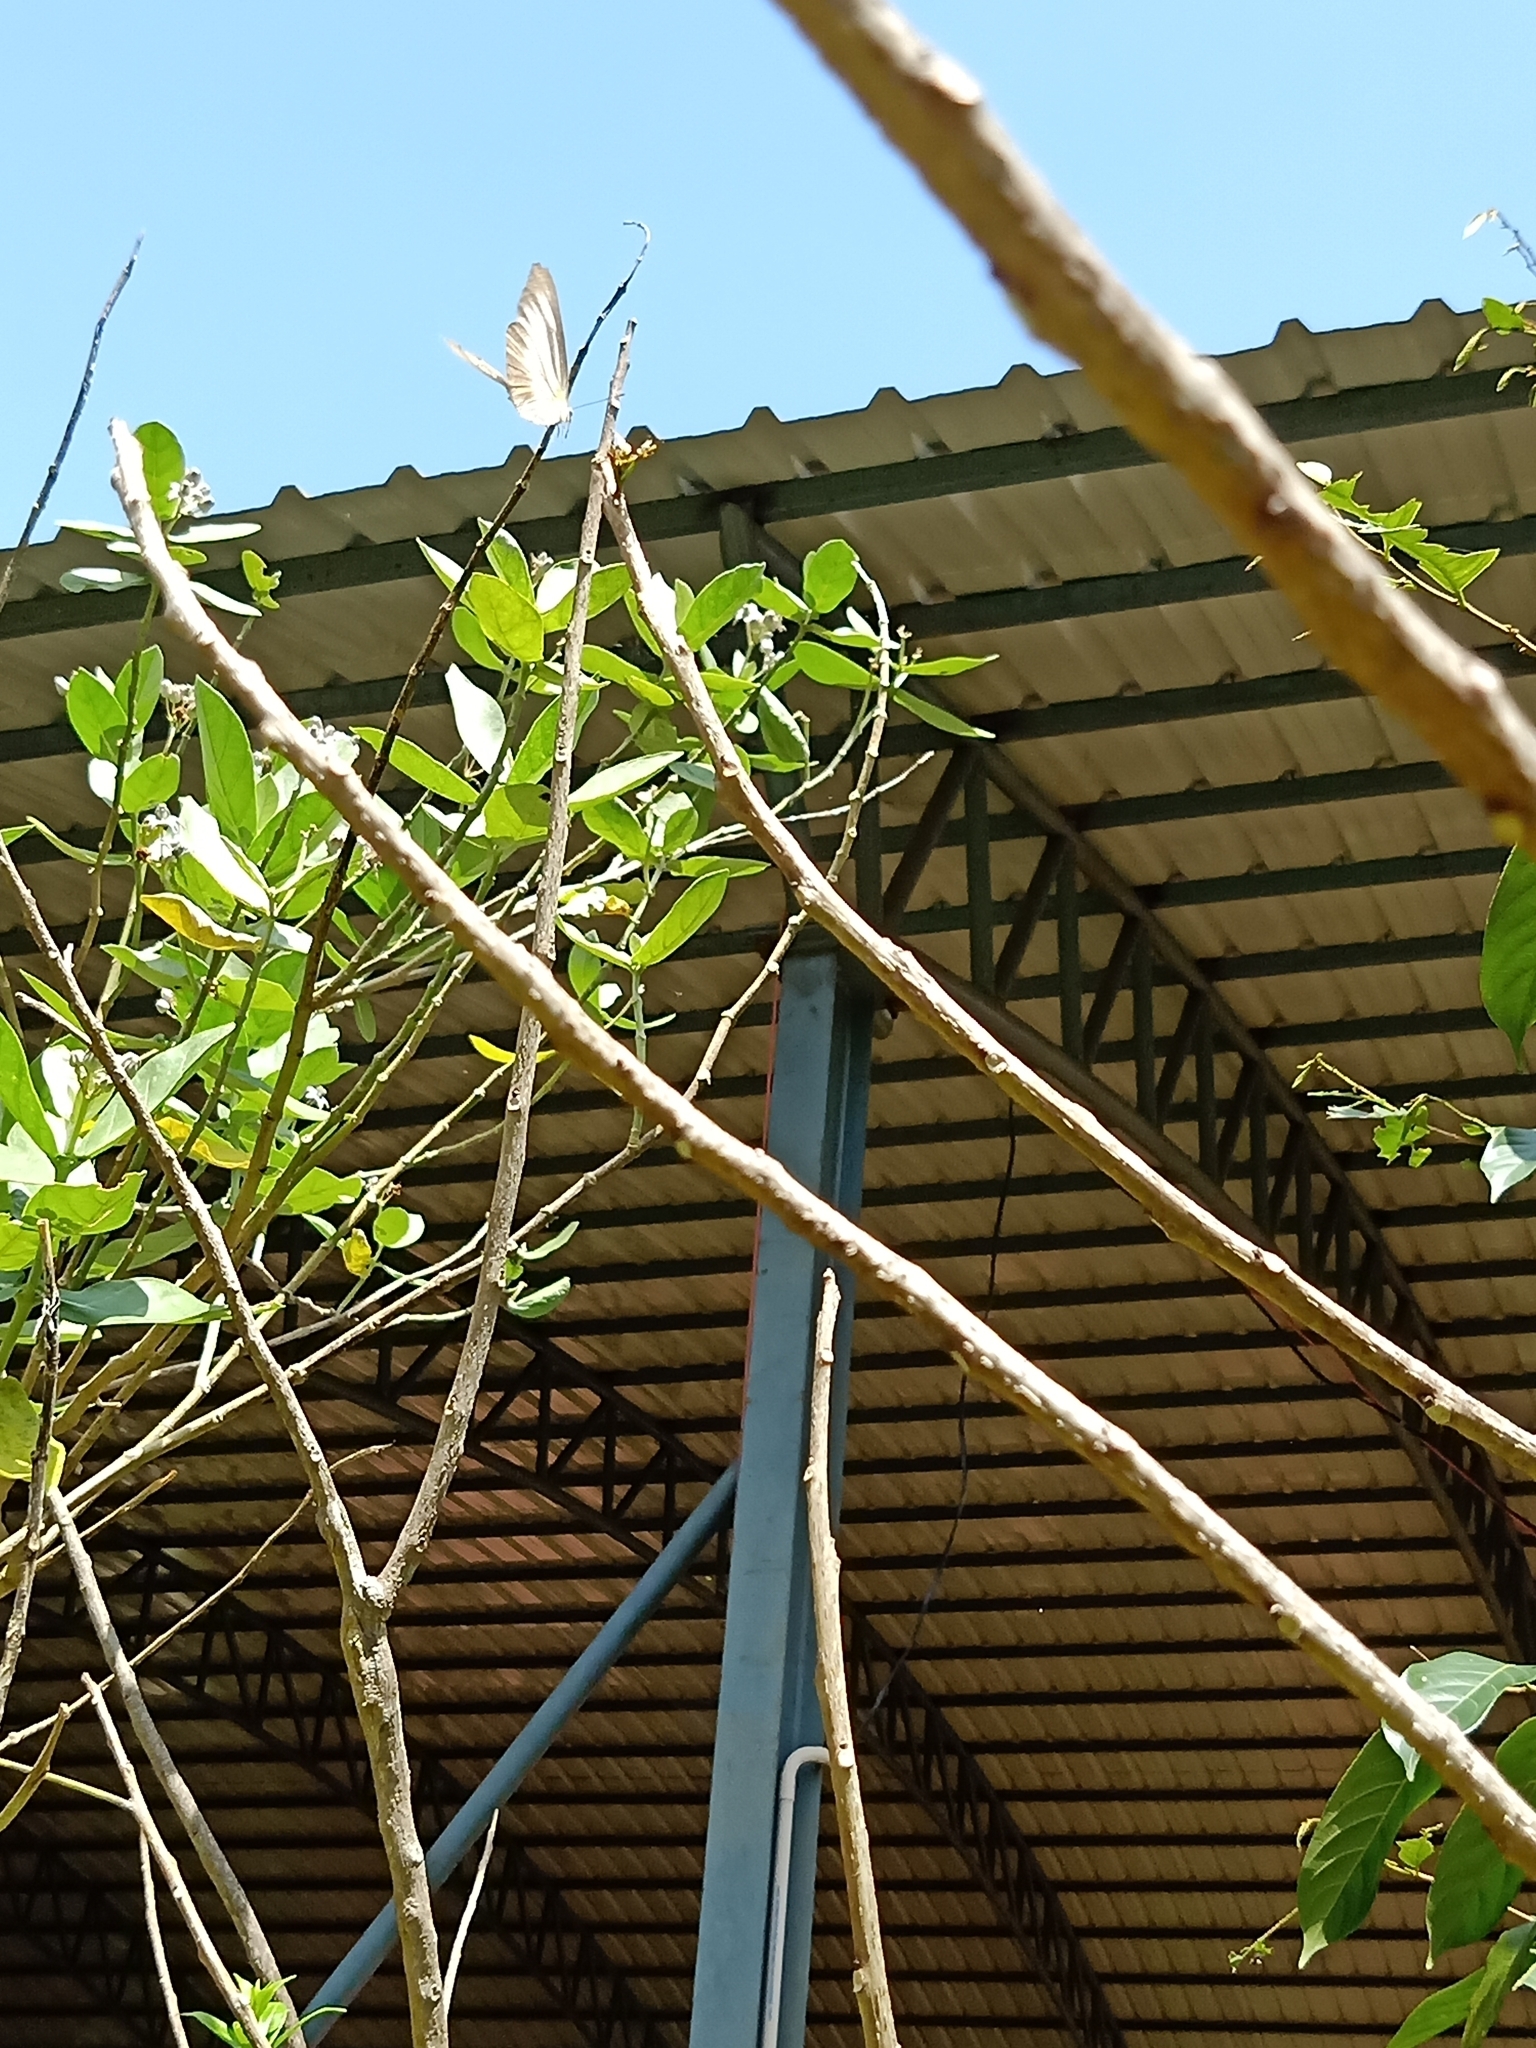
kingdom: Animalia
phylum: Arthropoda
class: Insecta
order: Lepidoptera
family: Pieridae
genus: Appias
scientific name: Appias lyncida
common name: Chocolate albatross
